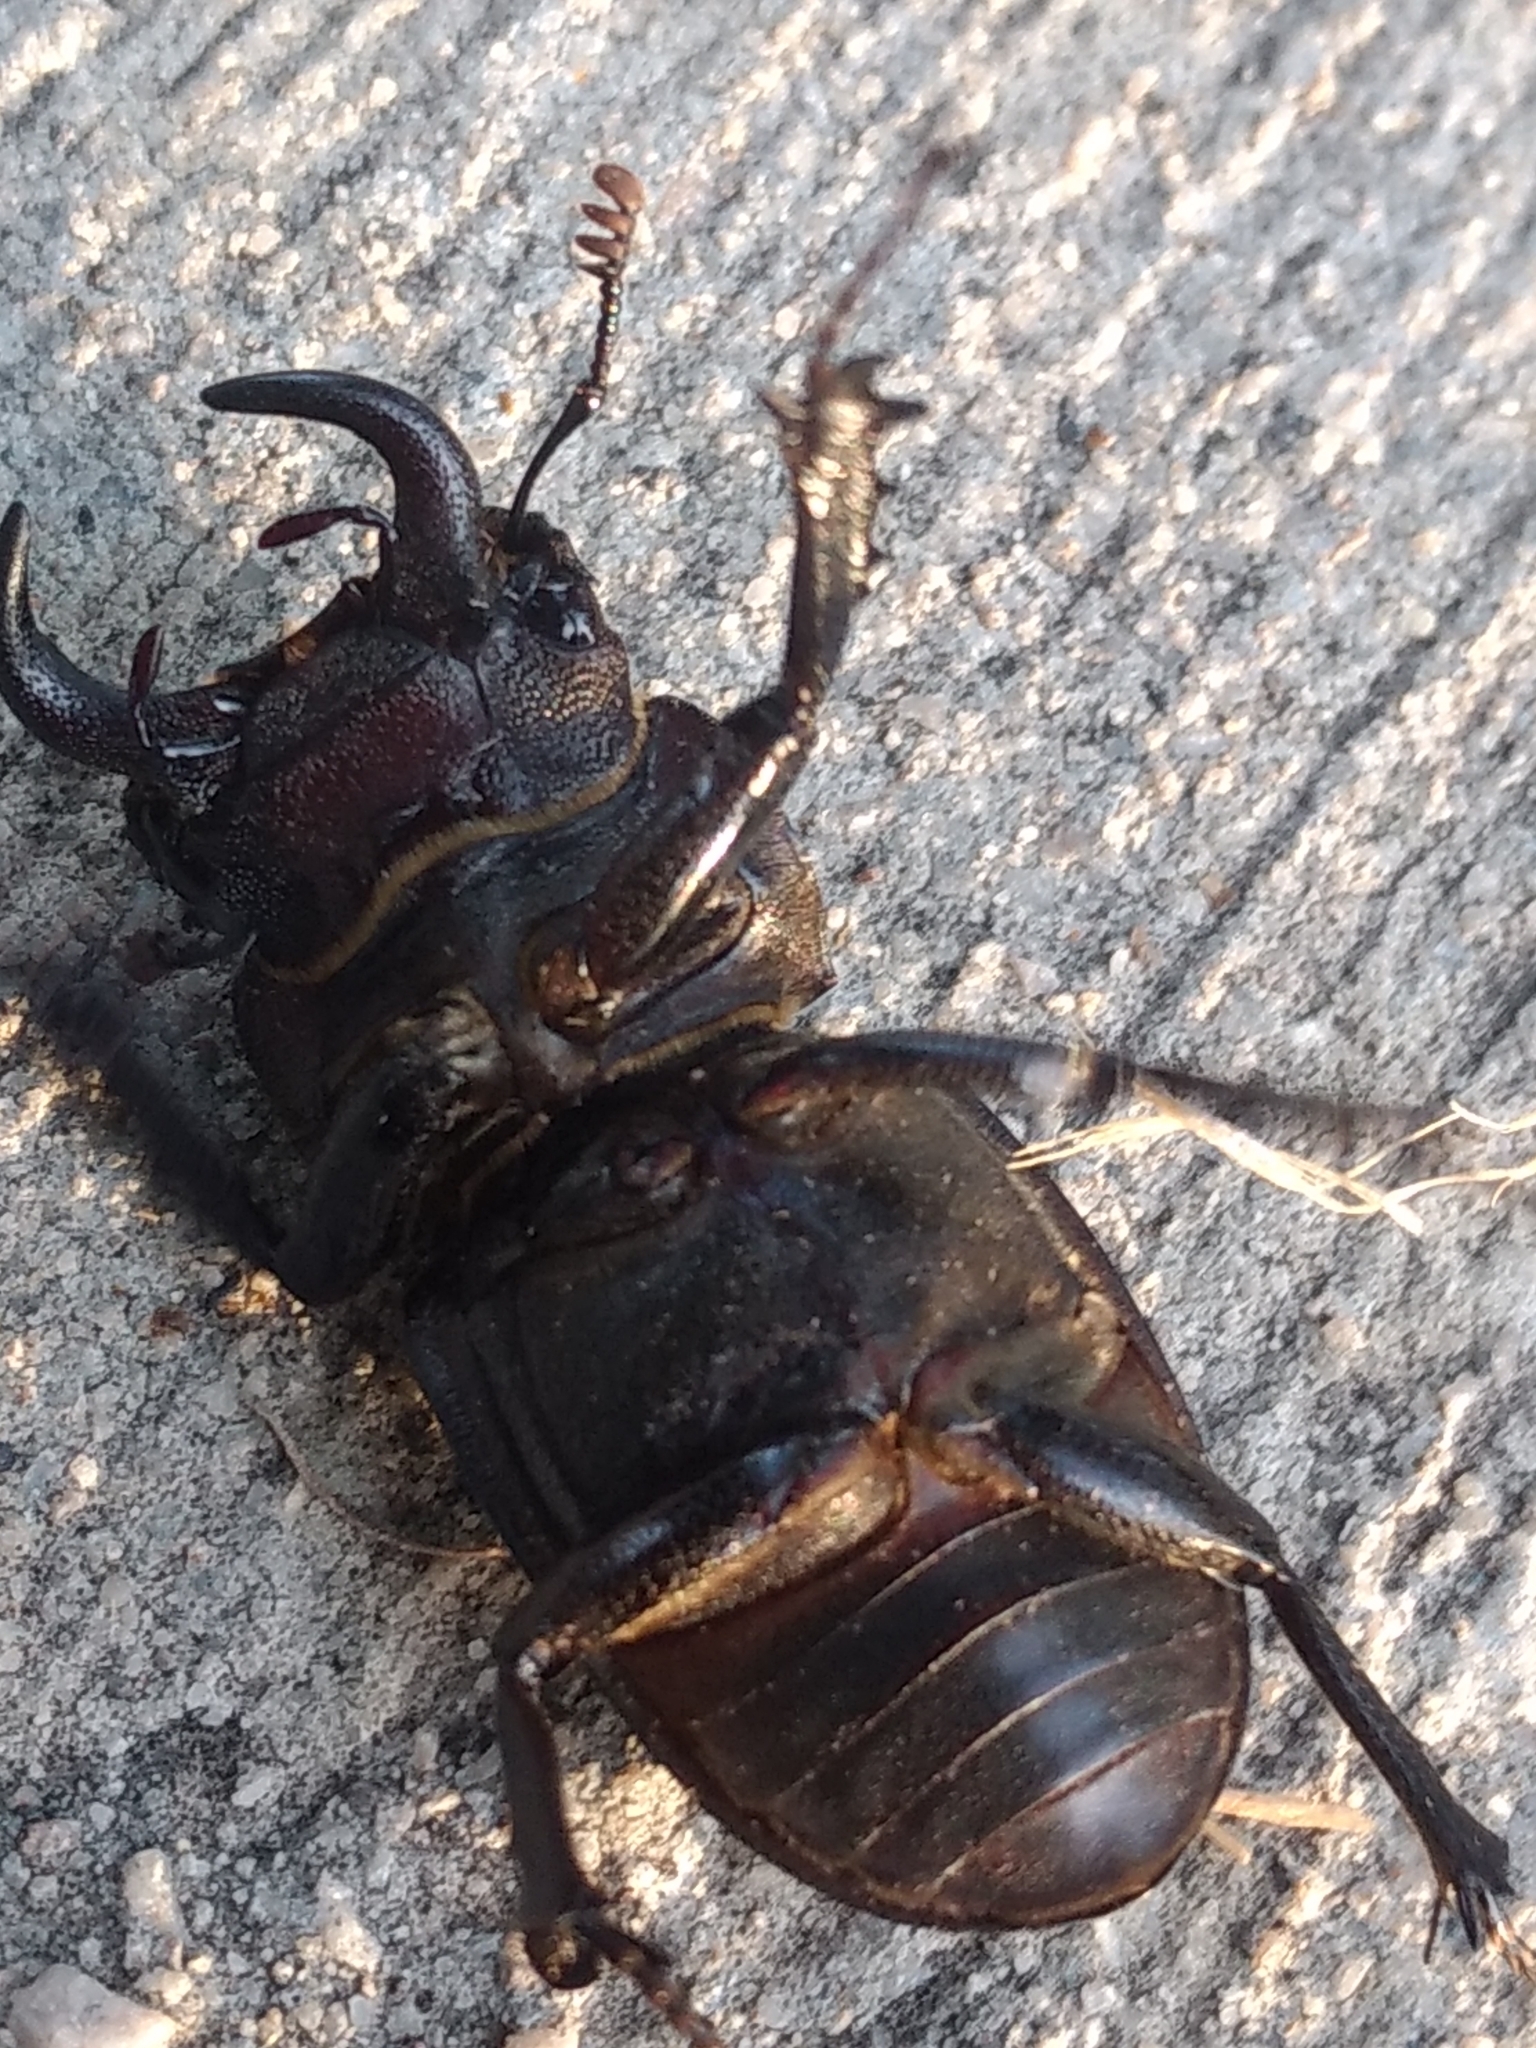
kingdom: Animalia
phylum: Arthropoda
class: Insecta
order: Coleoptera
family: Lucanidae
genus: Lucanus
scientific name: Lucanus mazama
